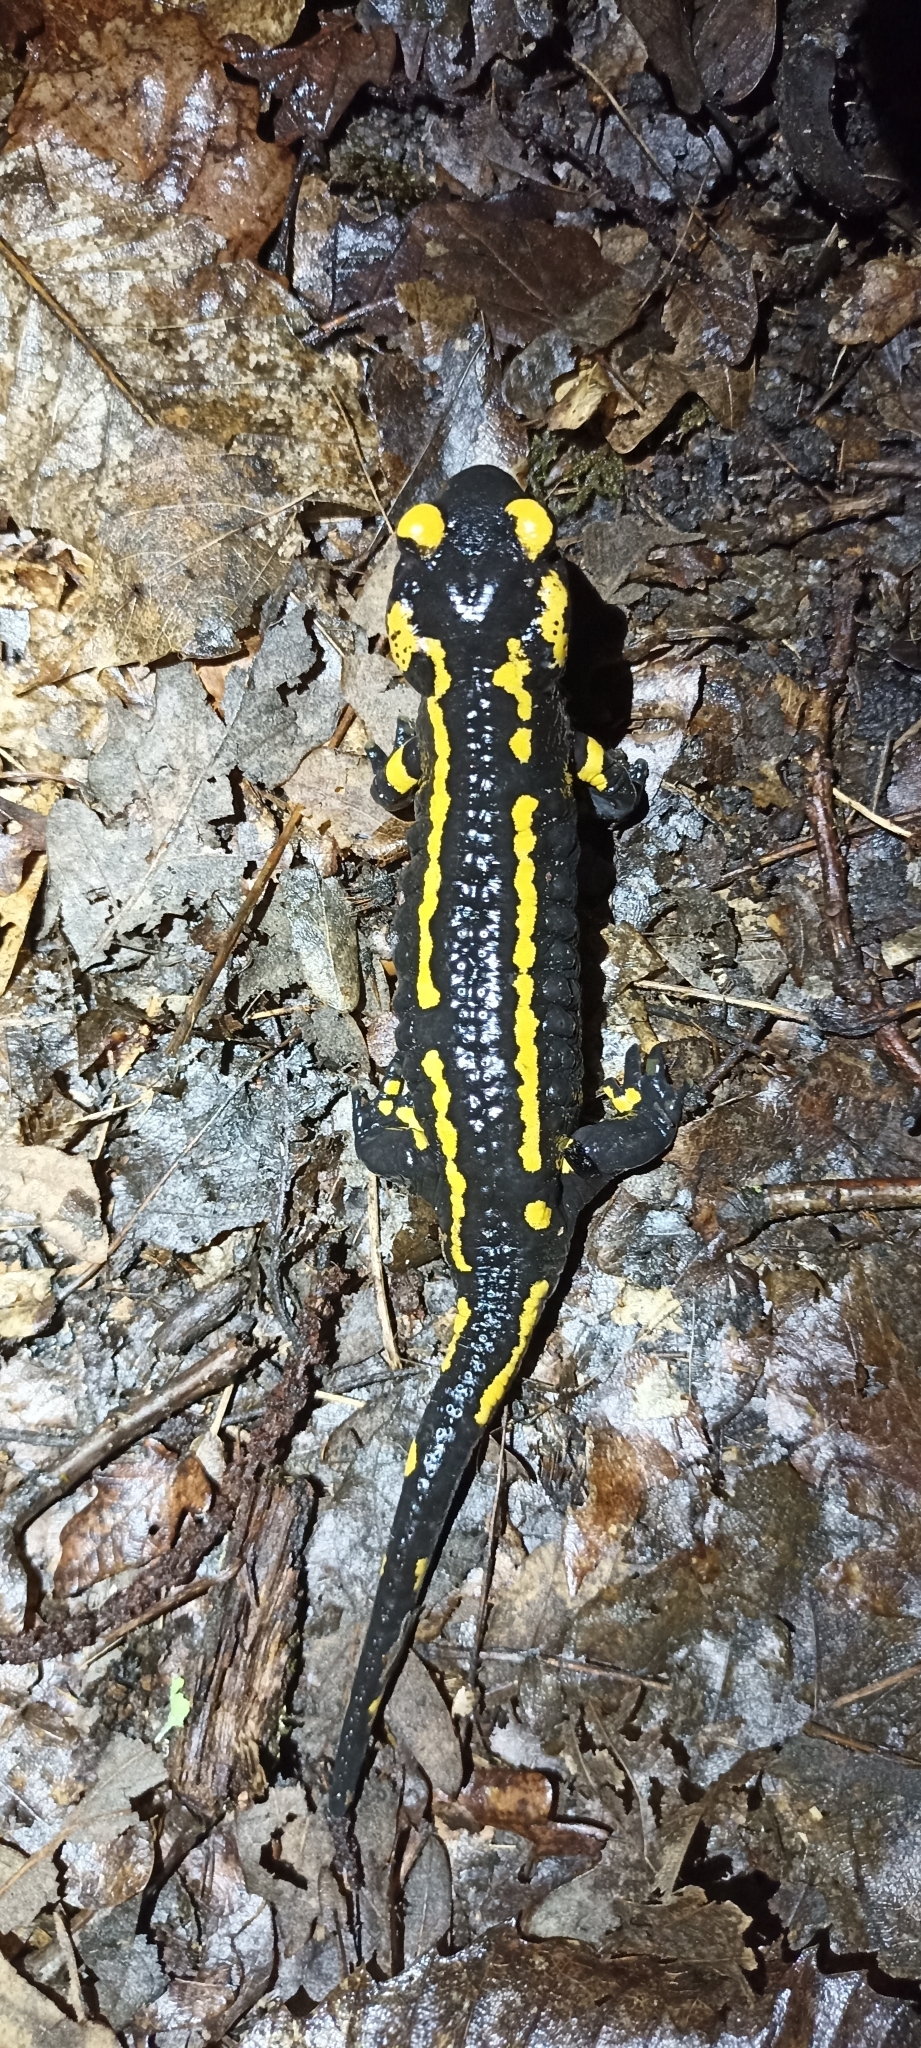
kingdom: Animalia
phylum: Chordata
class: Amphibia
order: Caudata
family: Salamandridae
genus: Salamandra
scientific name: Salamandra salamandra
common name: Fire salamander
